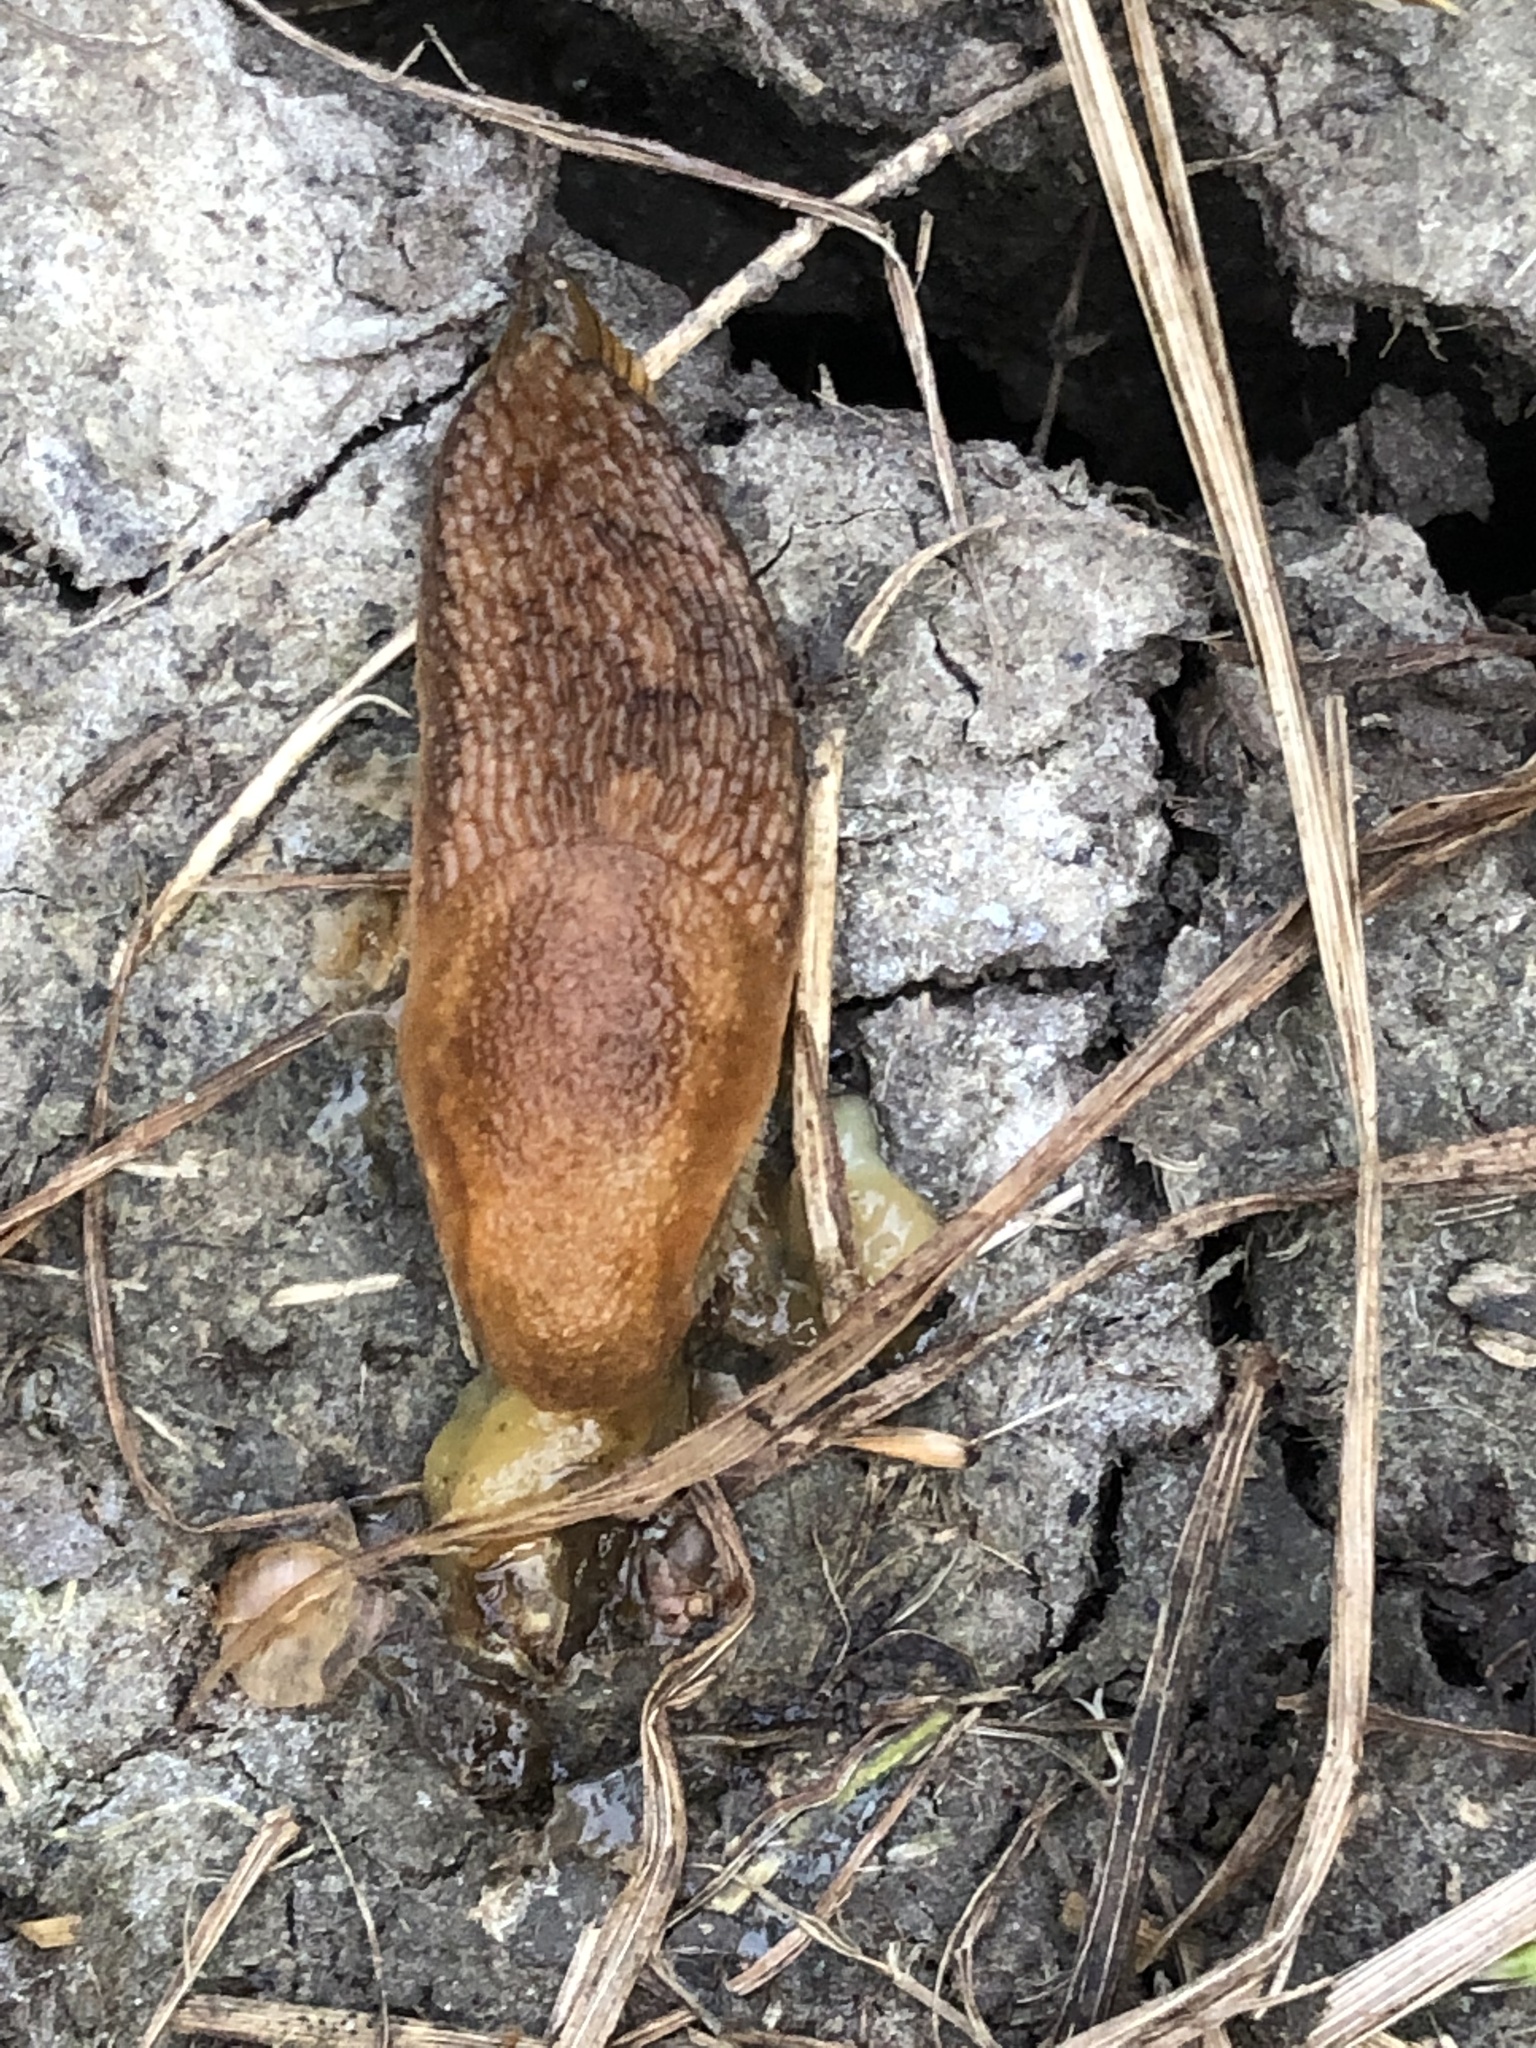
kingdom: Animalia
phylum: Mollusca
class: Gastropoda
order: Stylommatophora
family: Arionidae
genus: Arion
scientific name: Arion subfuscus
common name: Dusky arion
